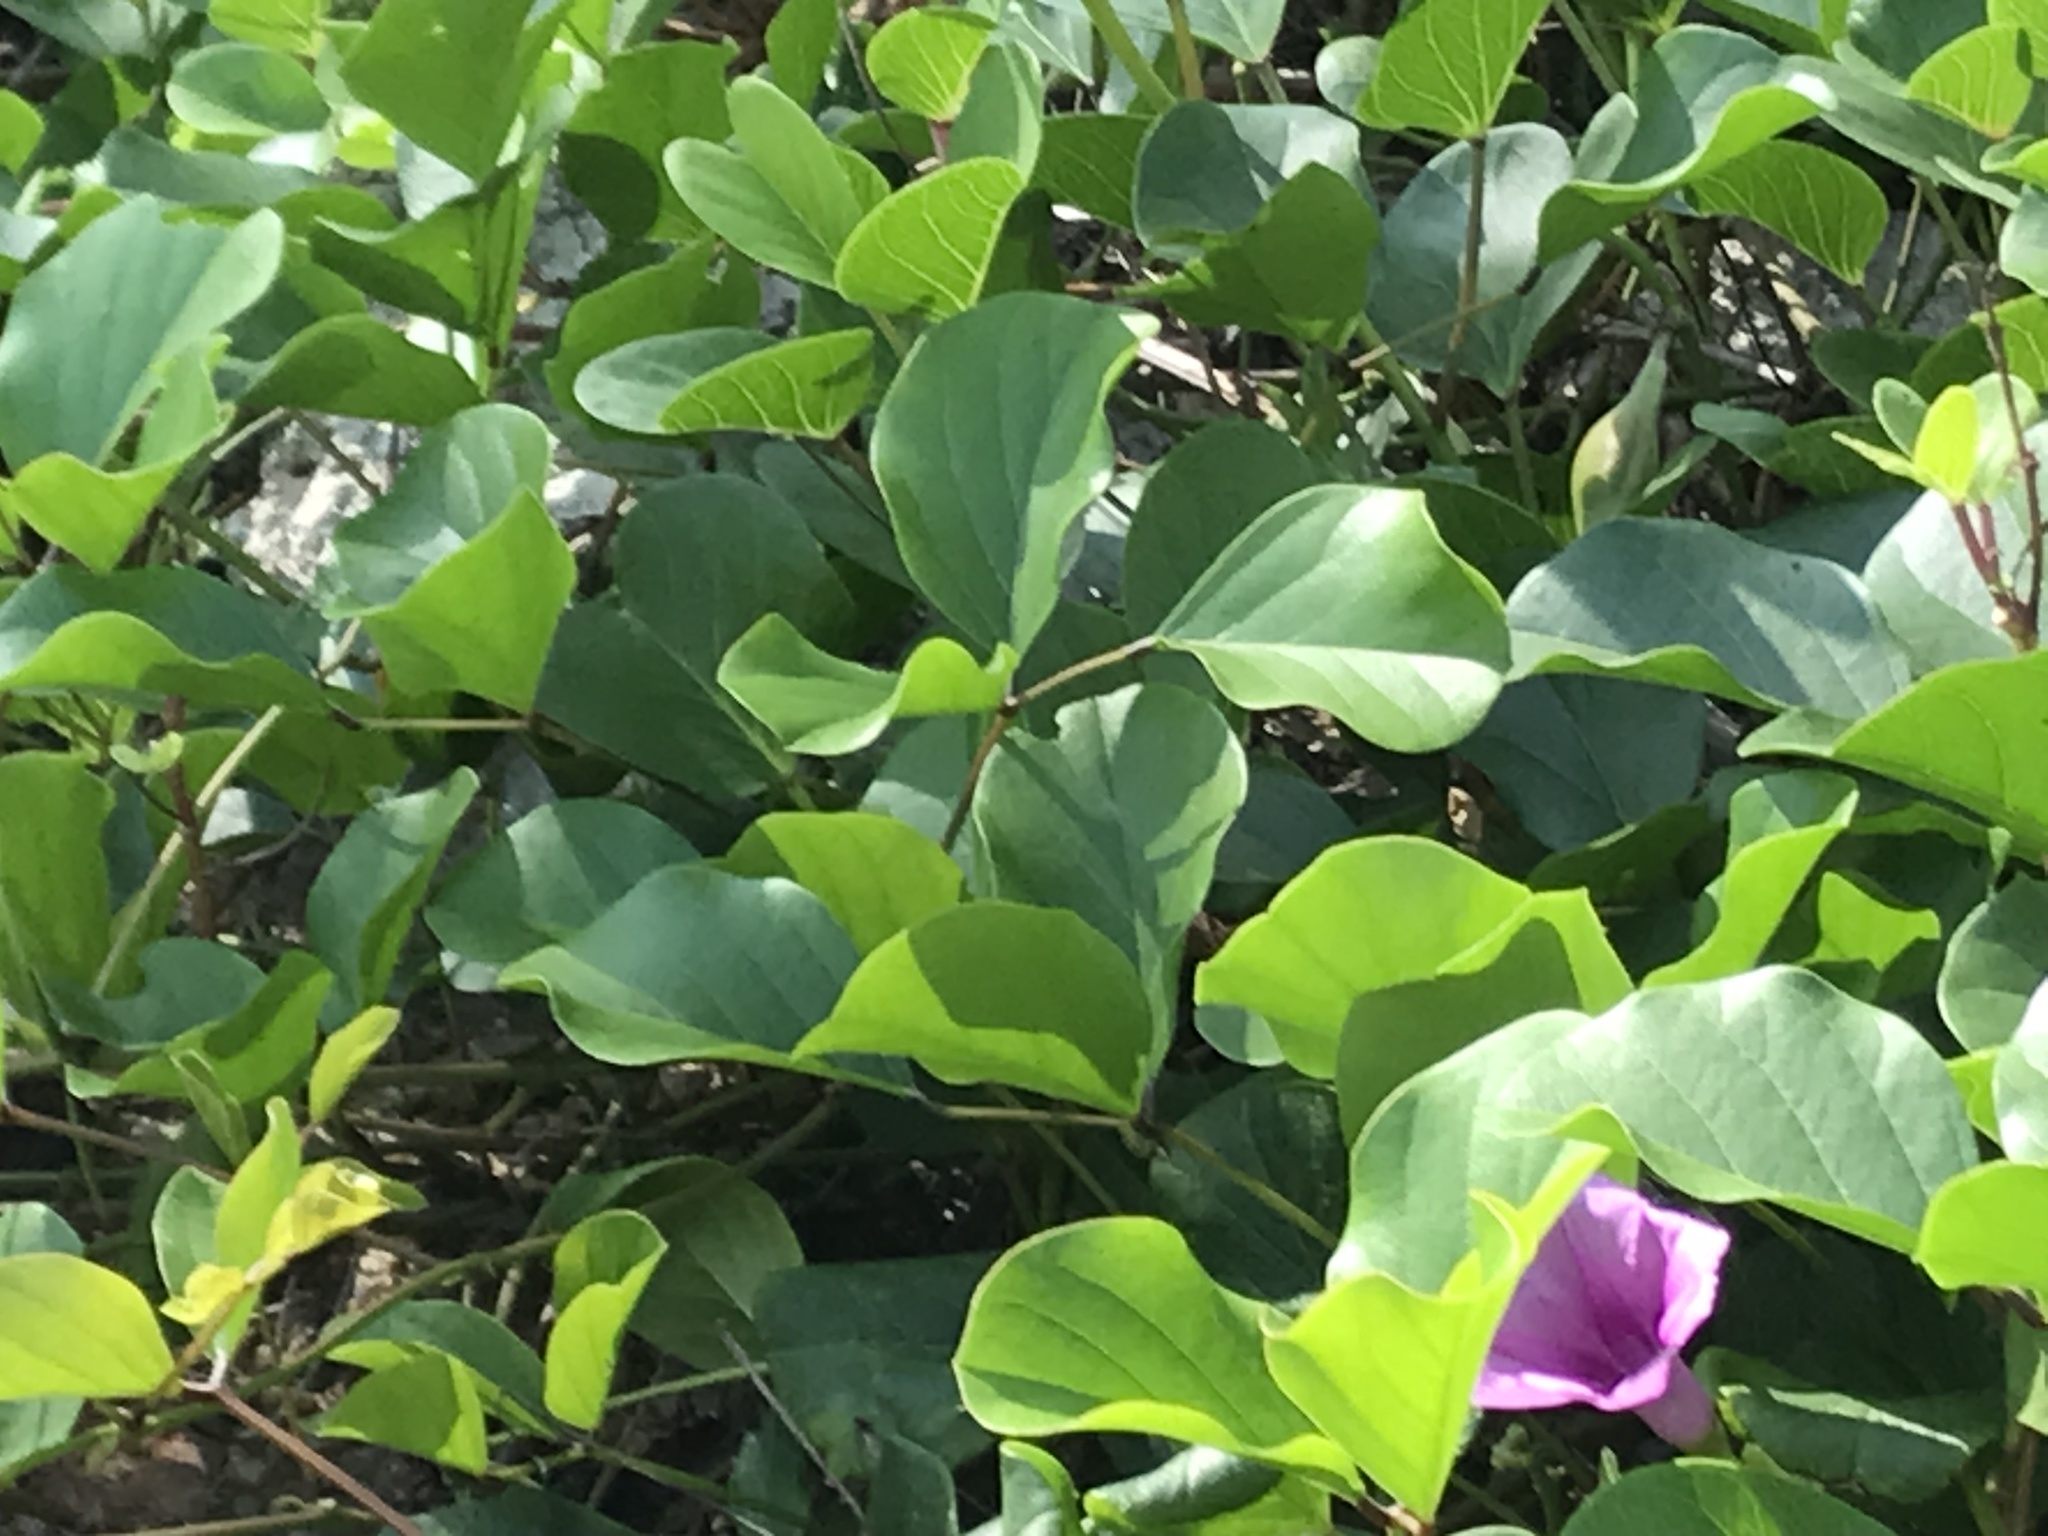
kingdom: Plantae
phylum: Tracheophyta
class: Magnoliopsida
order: Solanales
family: Convolvulaceae
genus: Ipomoea
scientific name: Ipomoea pes-caprae
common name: Beach morning glory
